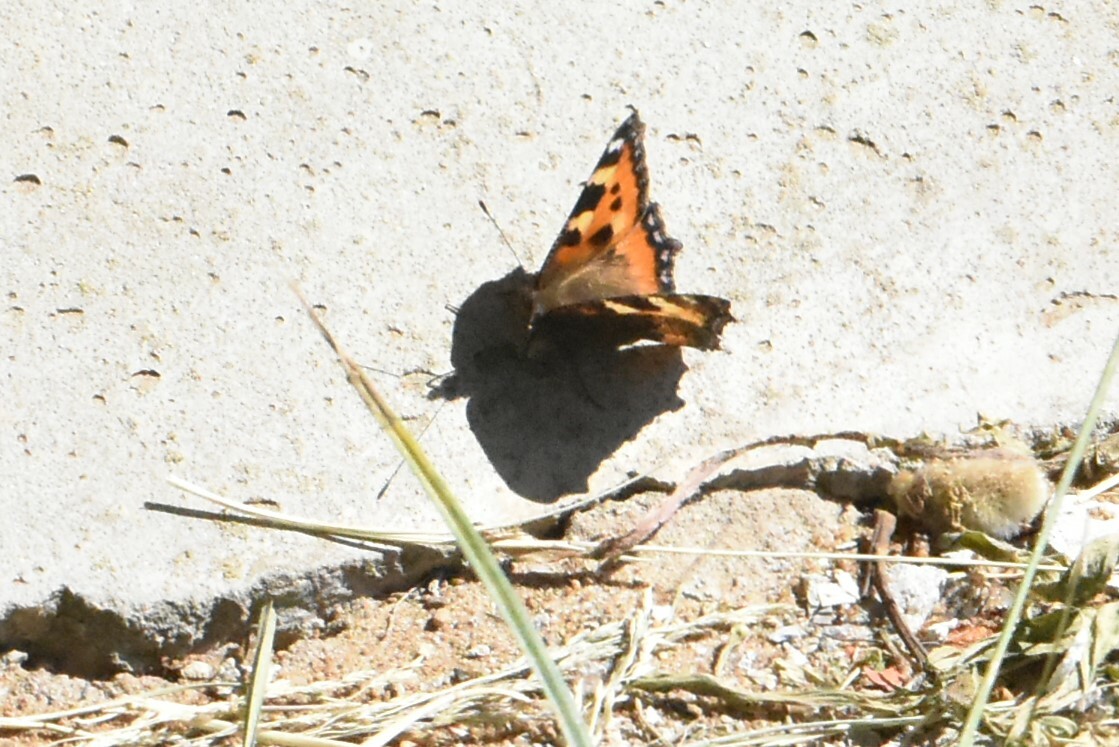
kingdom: Animalia
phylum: Arthropoda
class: Insecta
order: Lepidoptera
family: Nymphalidae
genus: Aglais
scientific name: Aglais urticae
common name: Small tortoiseshell
